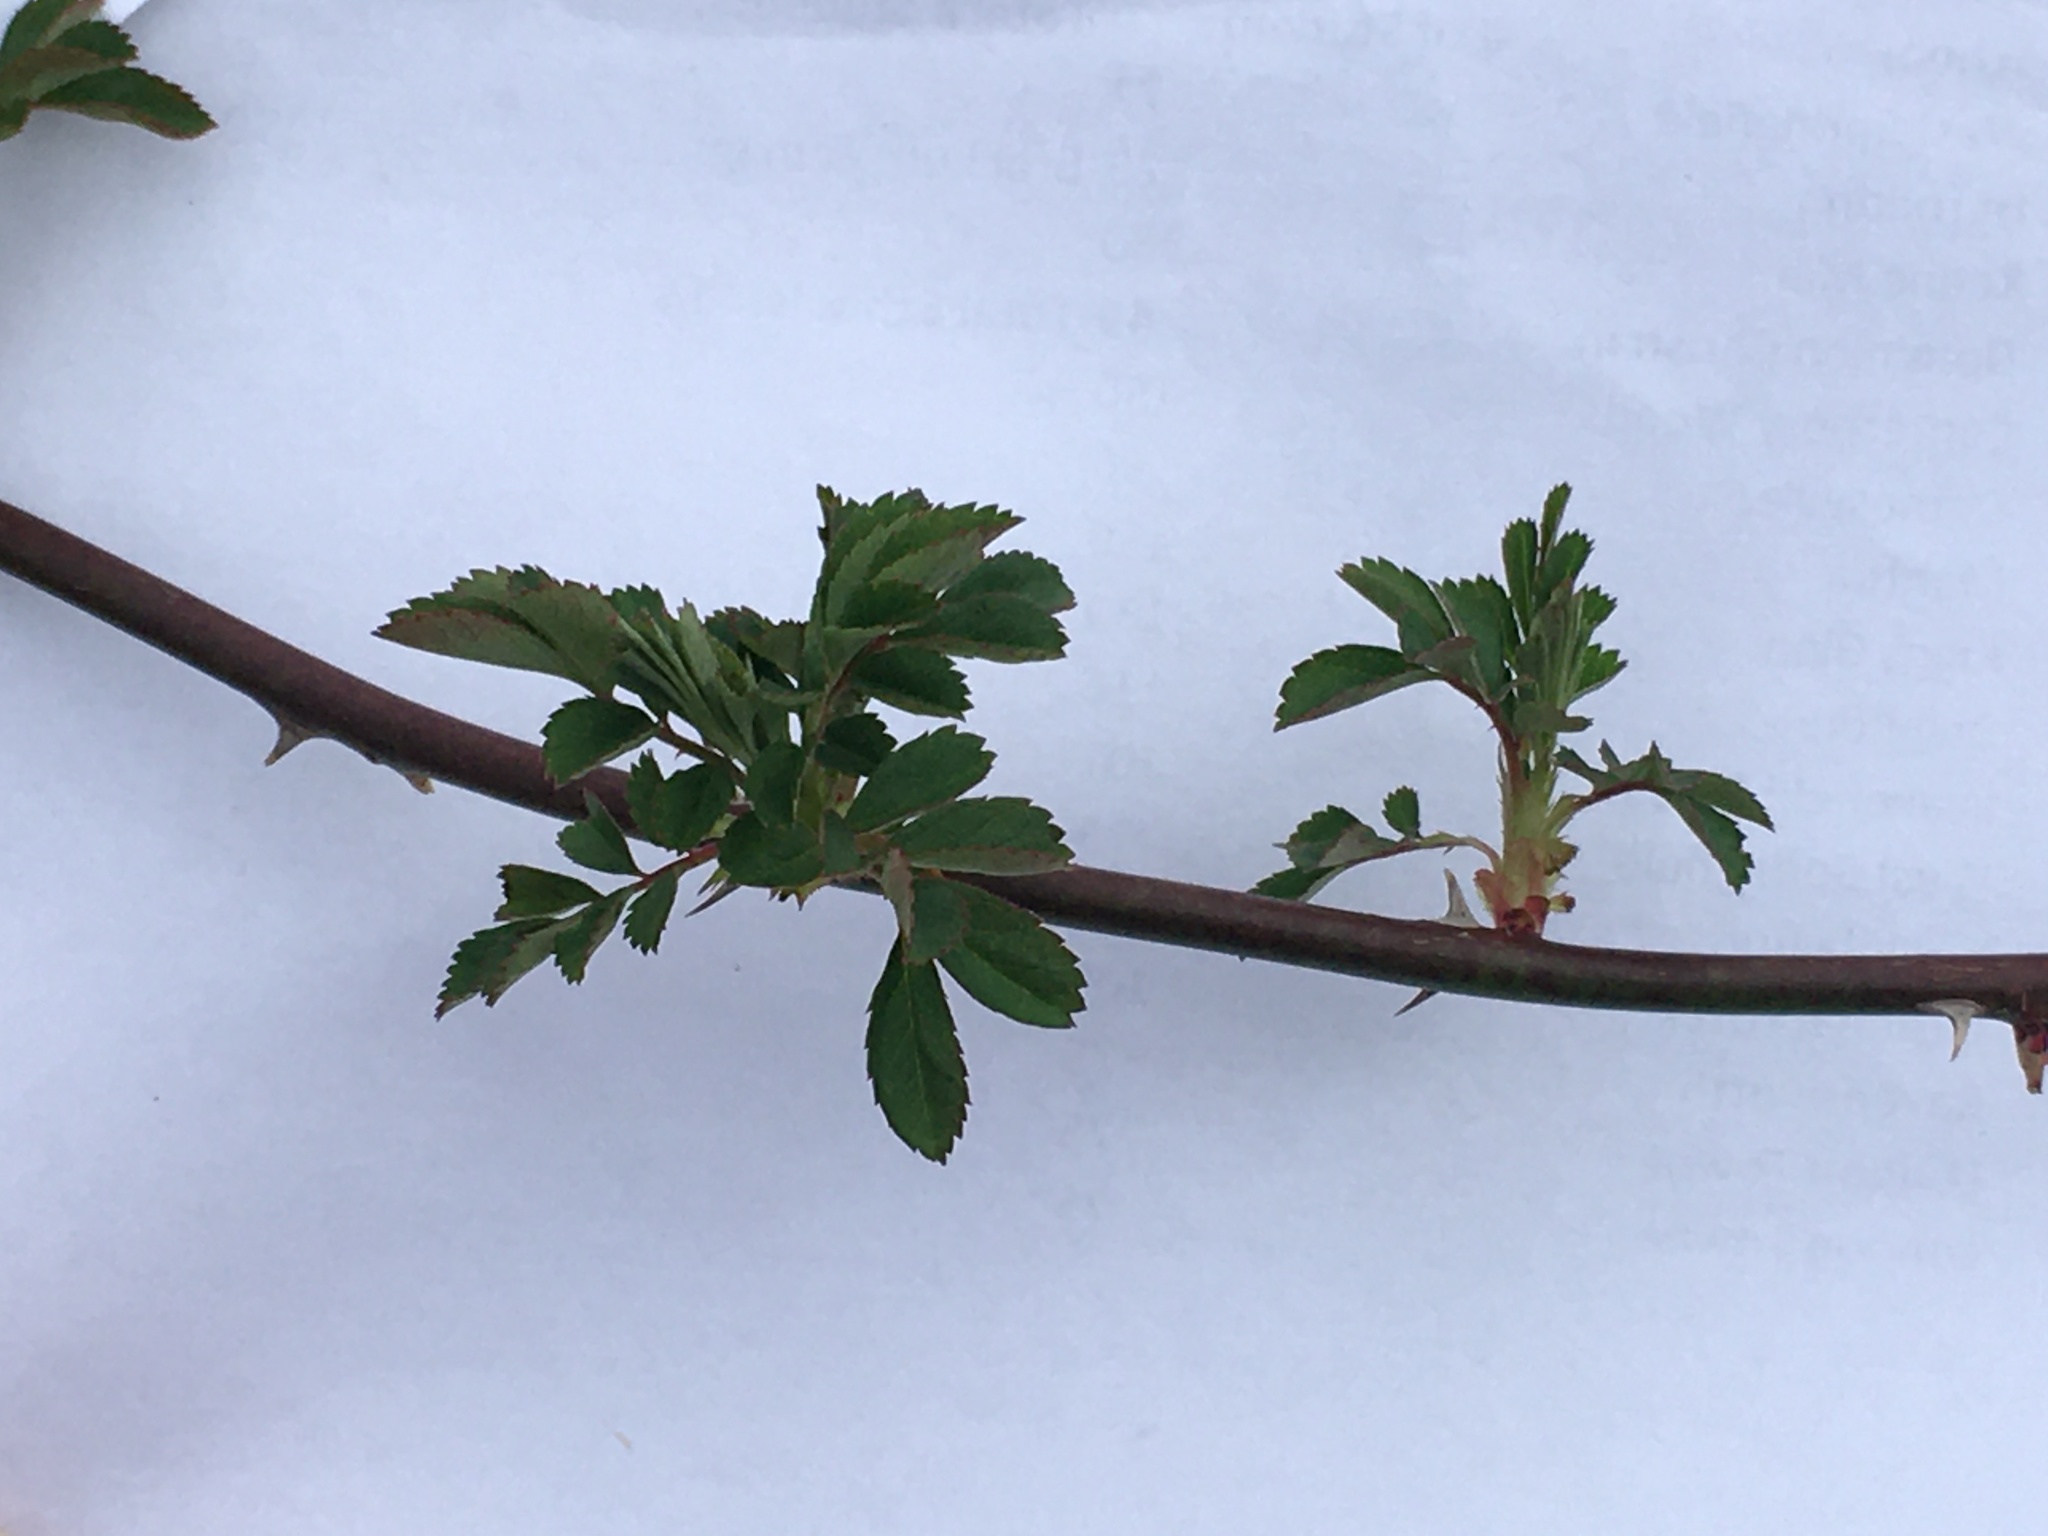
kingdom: Plantae
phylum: Tracheophyta
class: Magnoliopsida
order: Rosales
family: Rosaceae
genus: Rosa
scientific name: Rosa multiflora
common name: Multiflora rose
